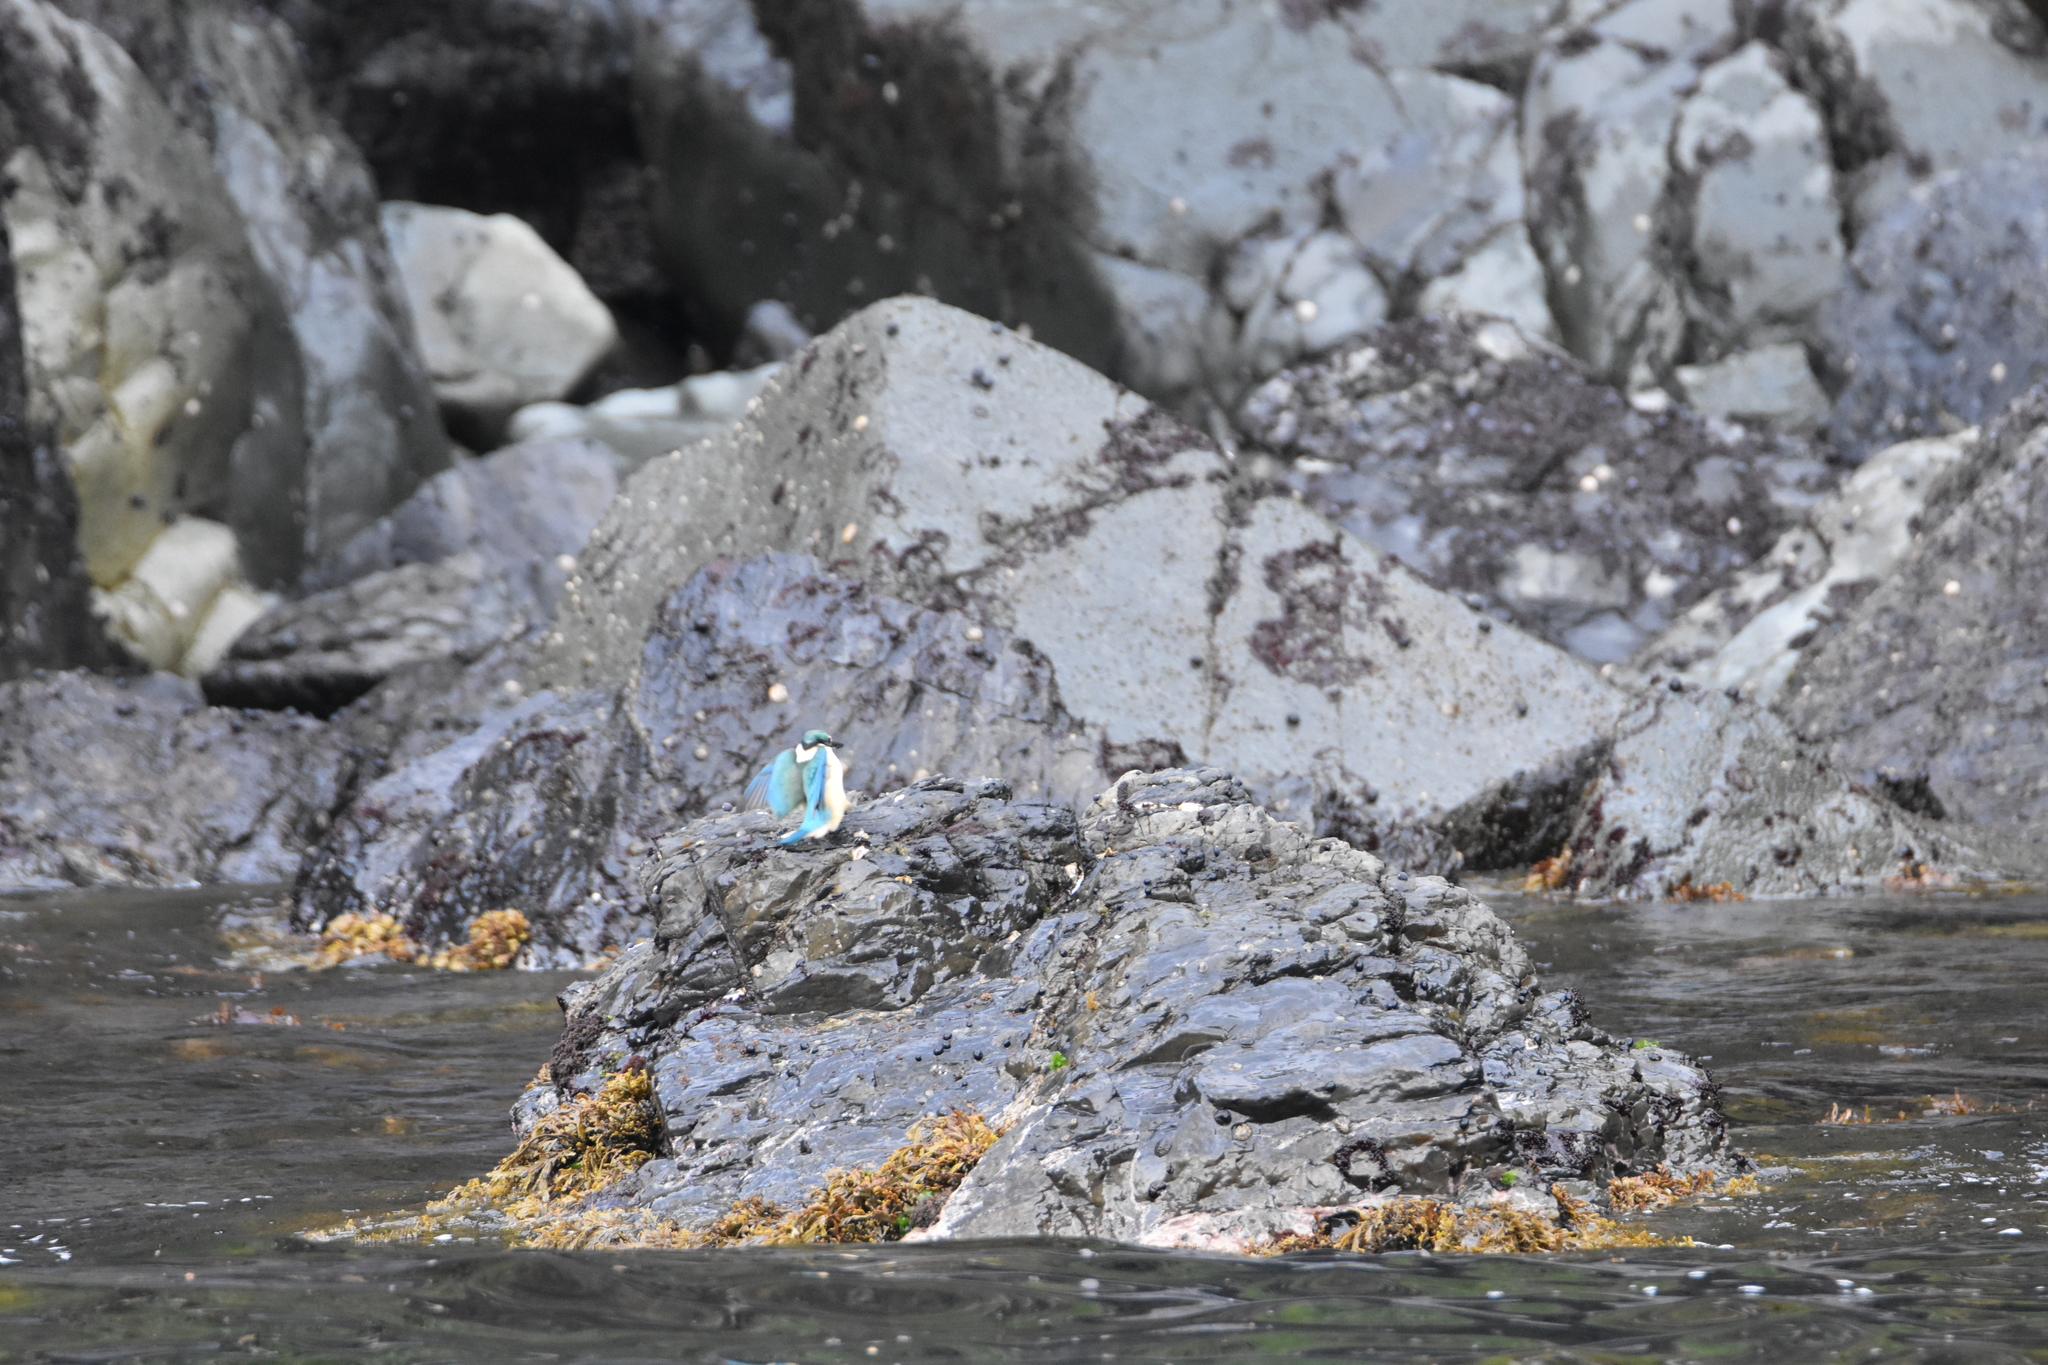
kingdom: Animalia
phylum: Chordata
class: Aves
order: Coraciiformes
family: Alcedinidae
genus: Todiramphus
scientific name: Todiramphus sanctus
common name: Sacred kingfisher
